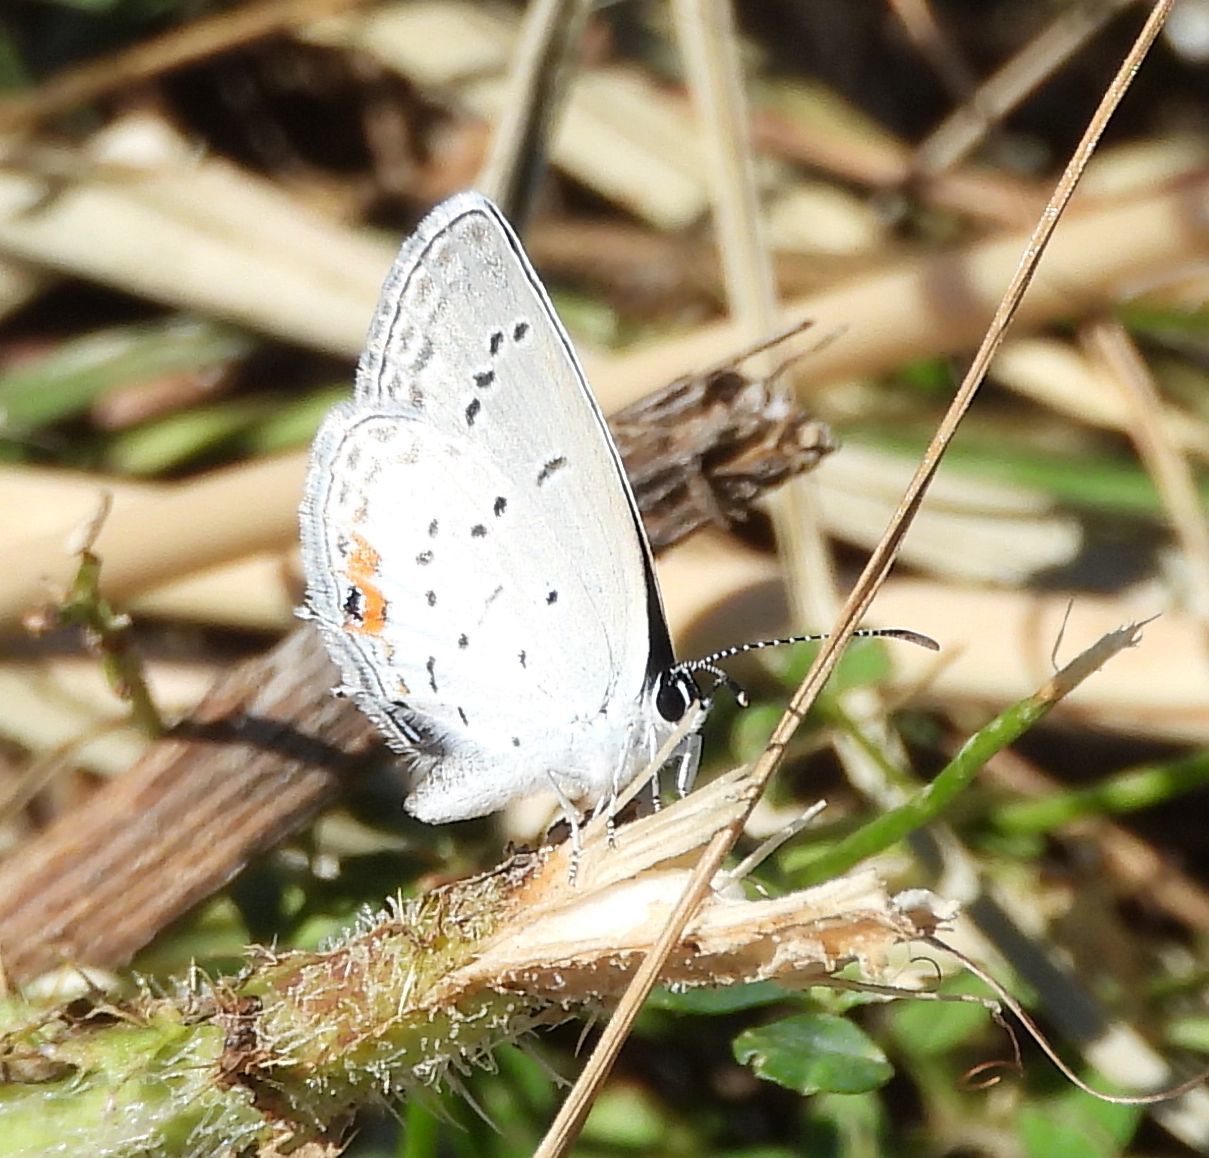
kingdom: Animalia
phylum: Arthropoda
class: Insecta
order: Lepidoptera
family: Lycaenidae
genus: Elkalyce
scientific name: Elkalyce comyntas
